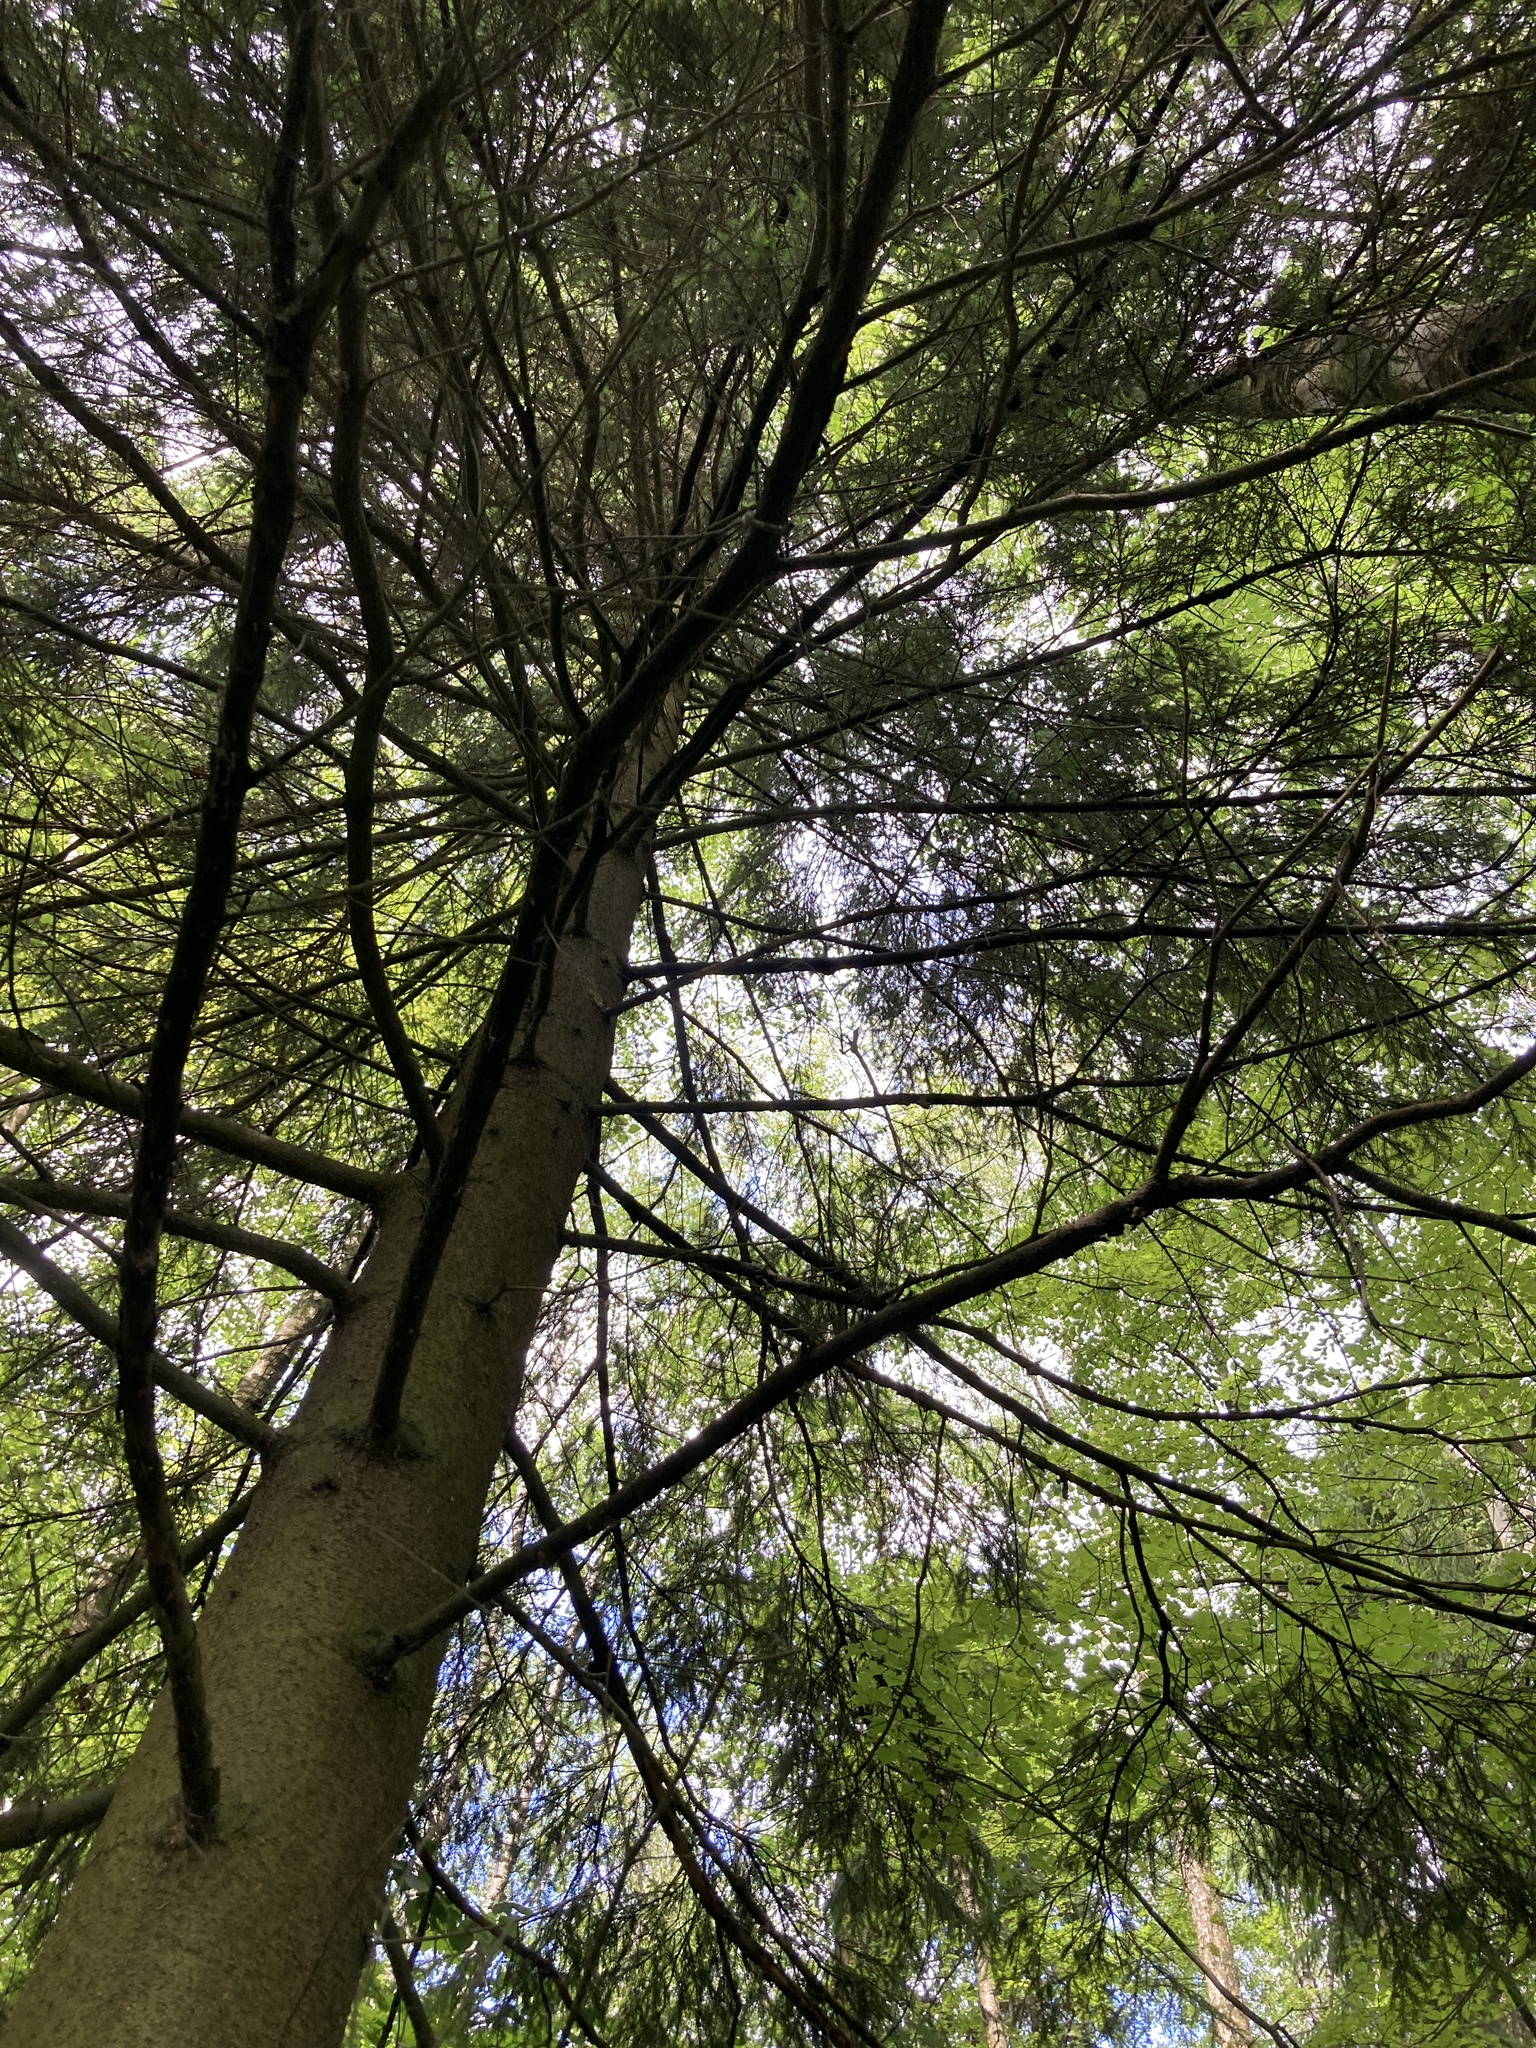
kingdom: Plantae
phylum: Tracheophyta
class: Pinopsida
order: Pinales
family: Pinaceae
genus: Picea
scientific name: Picea abies
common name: Norway spruce
